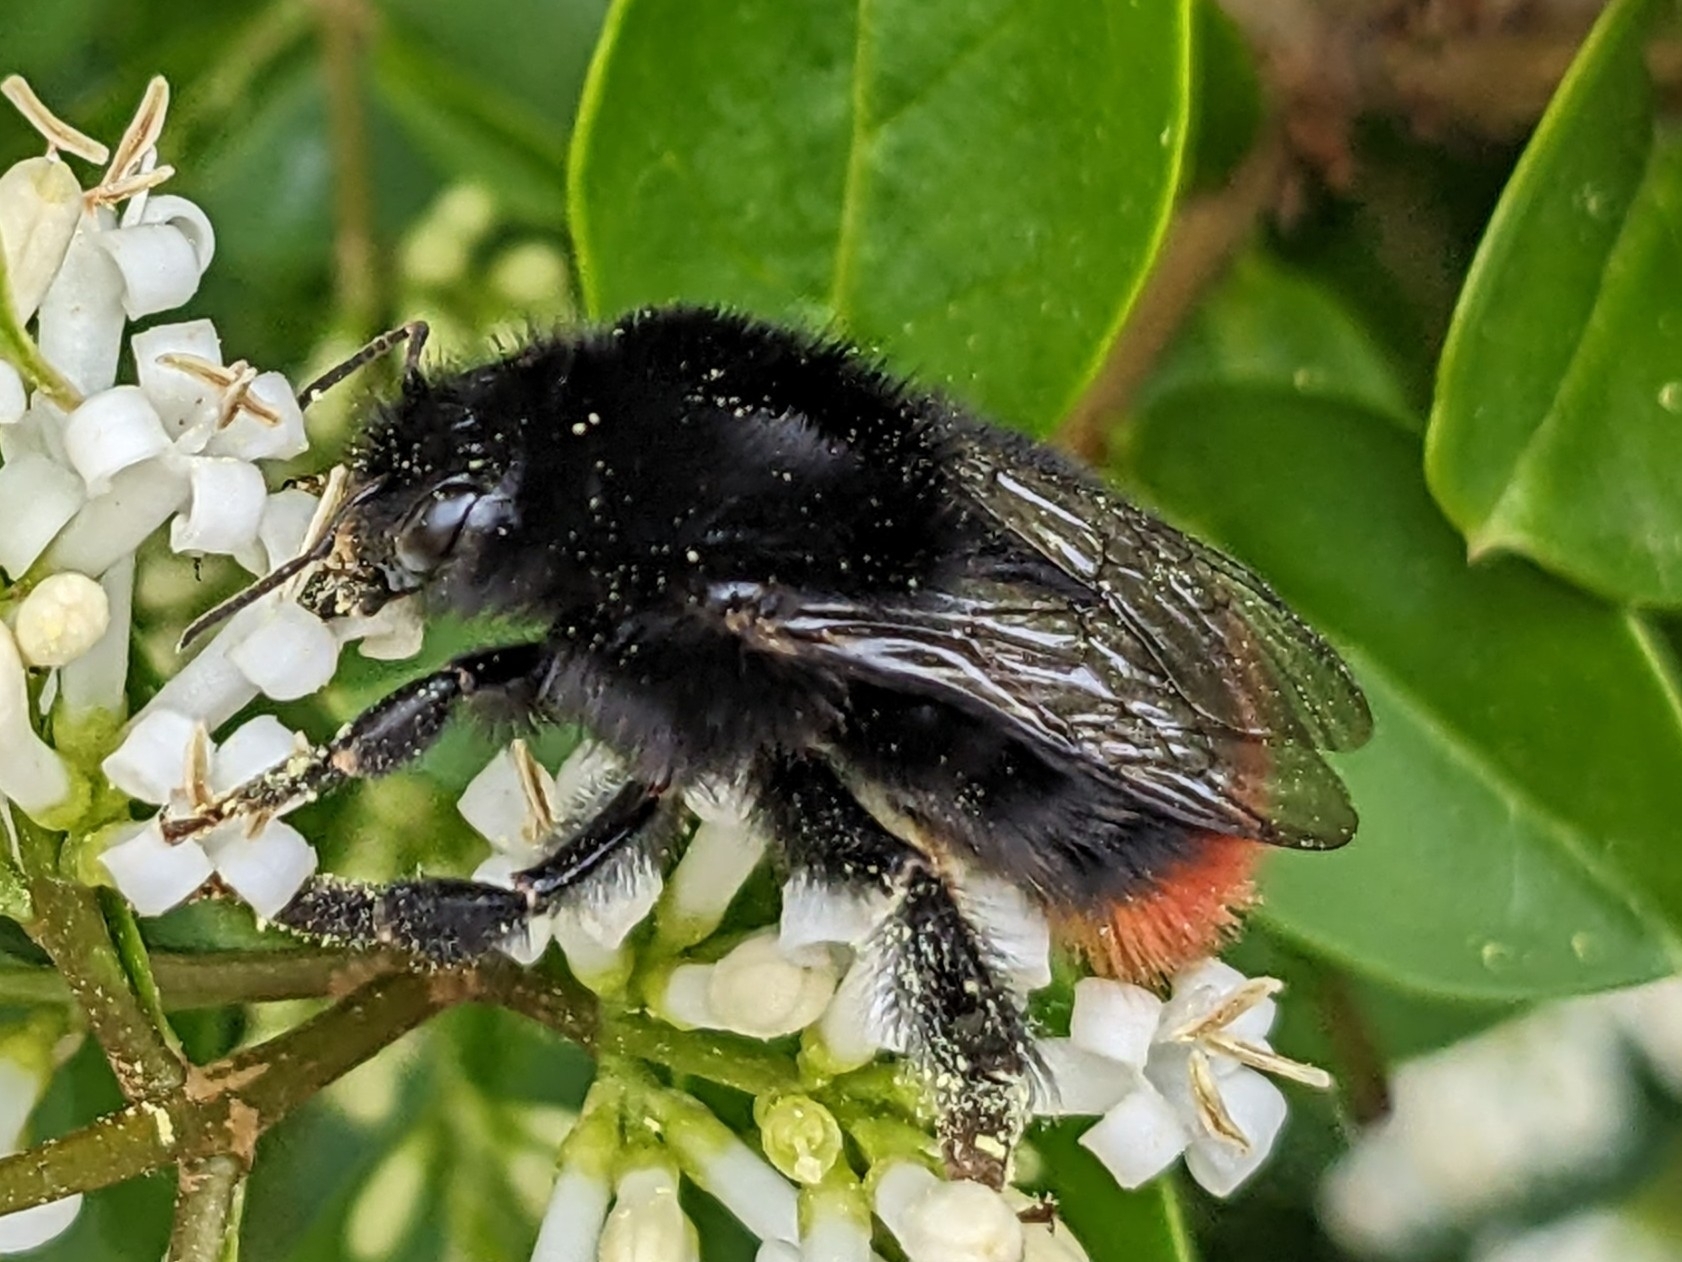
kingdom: Animalia
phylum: Arthropoda
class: Insecta
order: Hymenoptera
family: Apidae
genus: Bombus
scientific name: Bombus lapidarius
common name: Large red-tailed humble-bee
